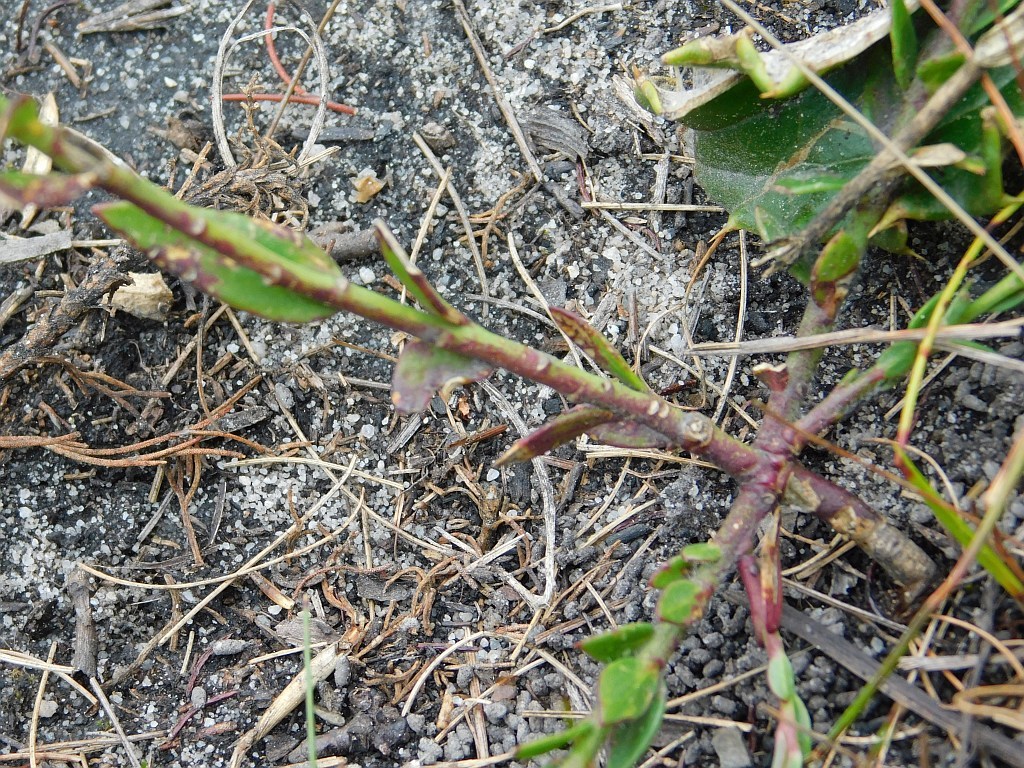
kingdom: Plantae
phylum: Tracheophyta
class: Magnoliopsida
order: Fabales
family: Polygalaceae
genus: Polygala
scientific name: Polygala bracteolata
